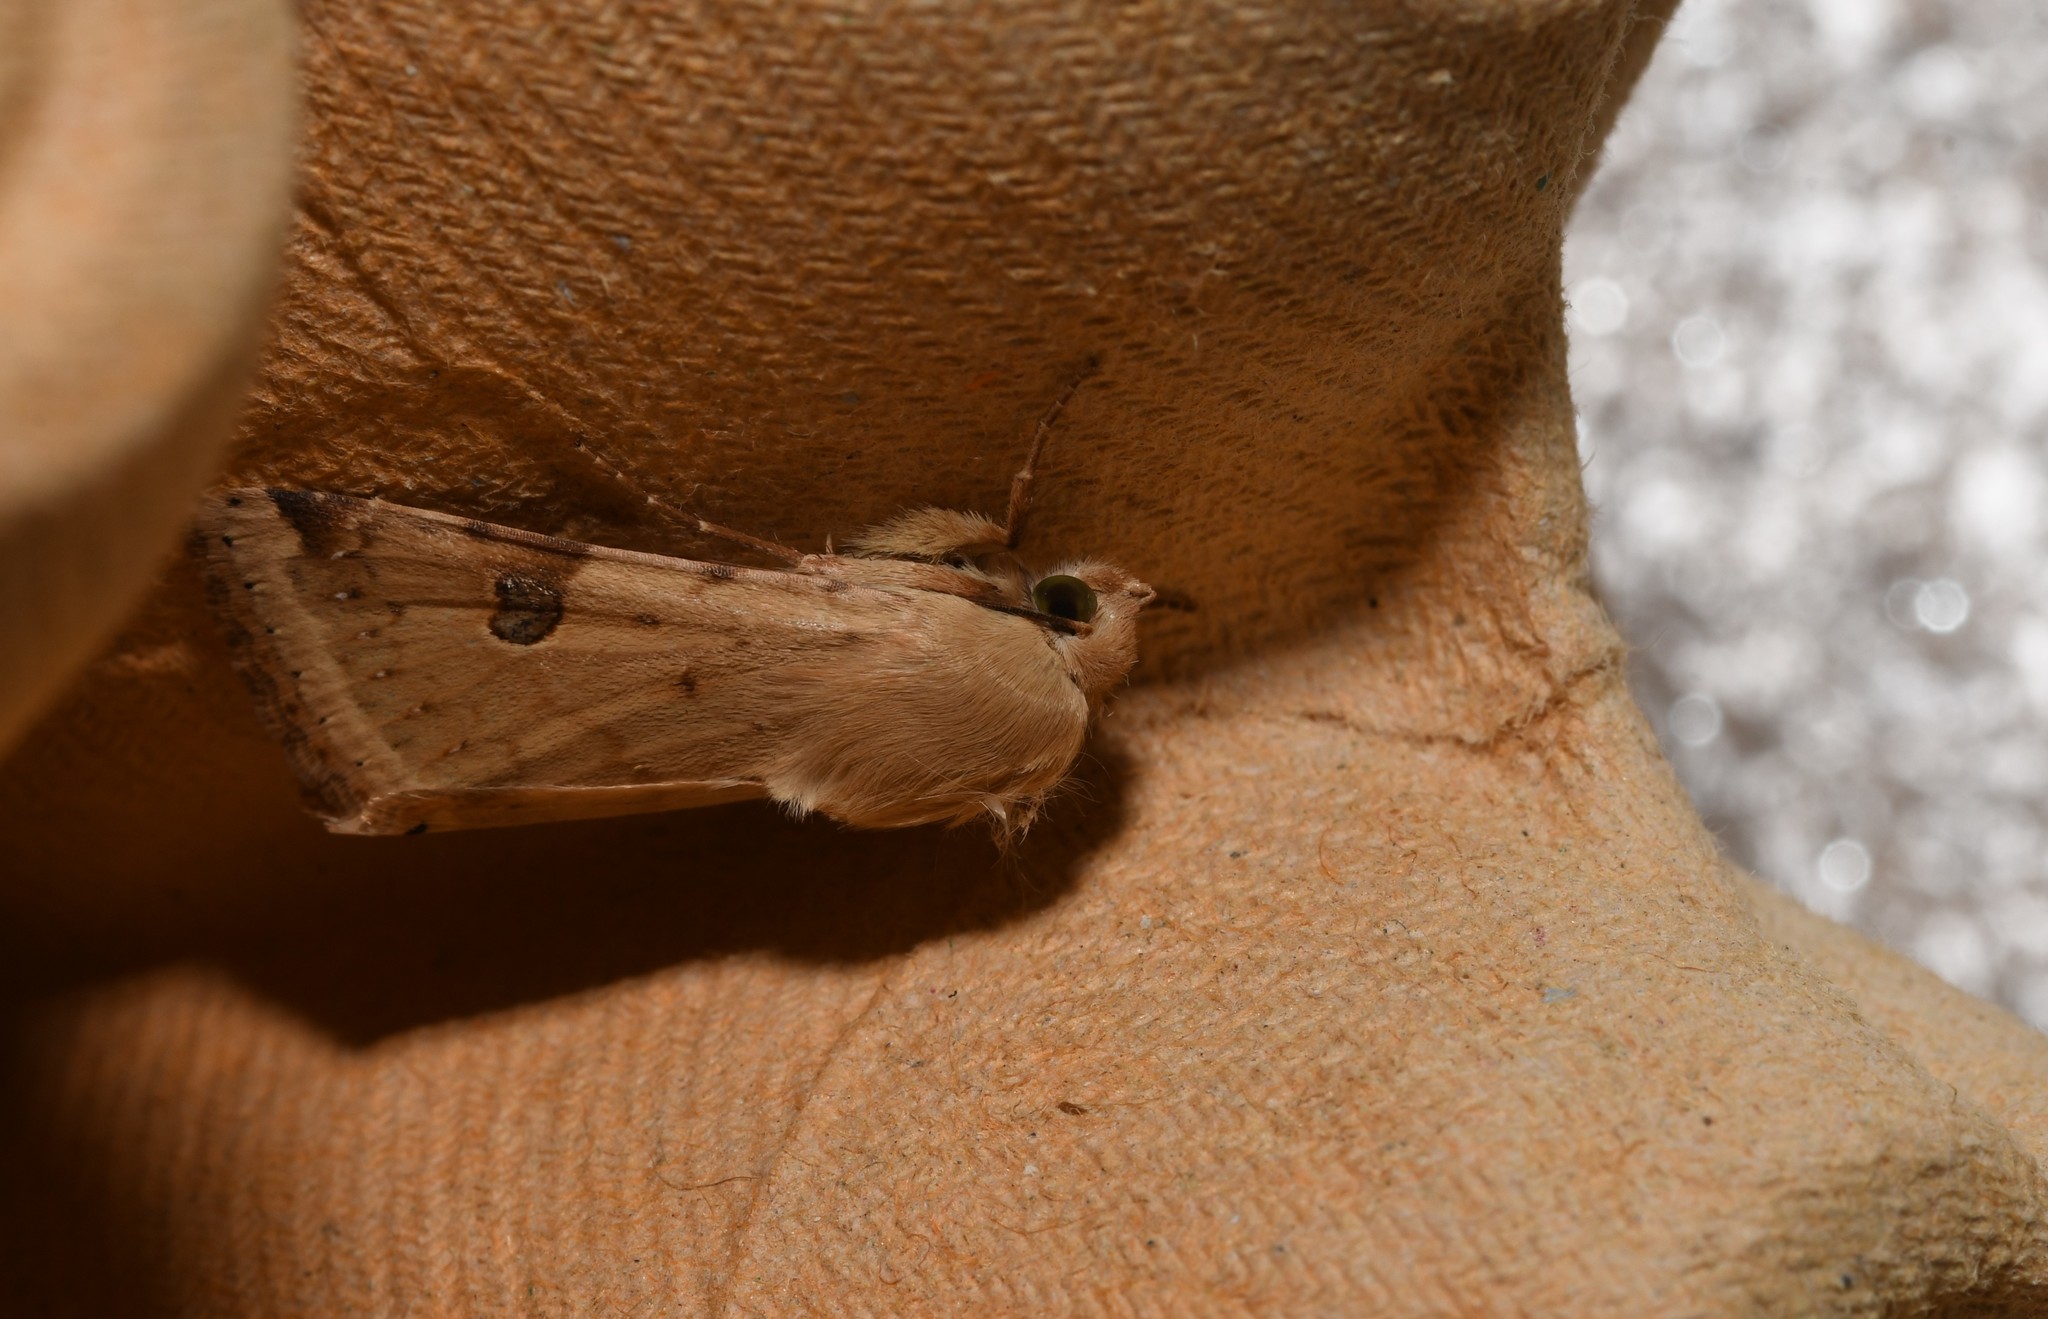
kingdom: Animalia
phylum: Arthropoda
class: Insecta
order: Lepidoptera
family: Noctuidae
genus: Heliothis
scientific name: Heliothis peltigera
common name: Bordered straw
